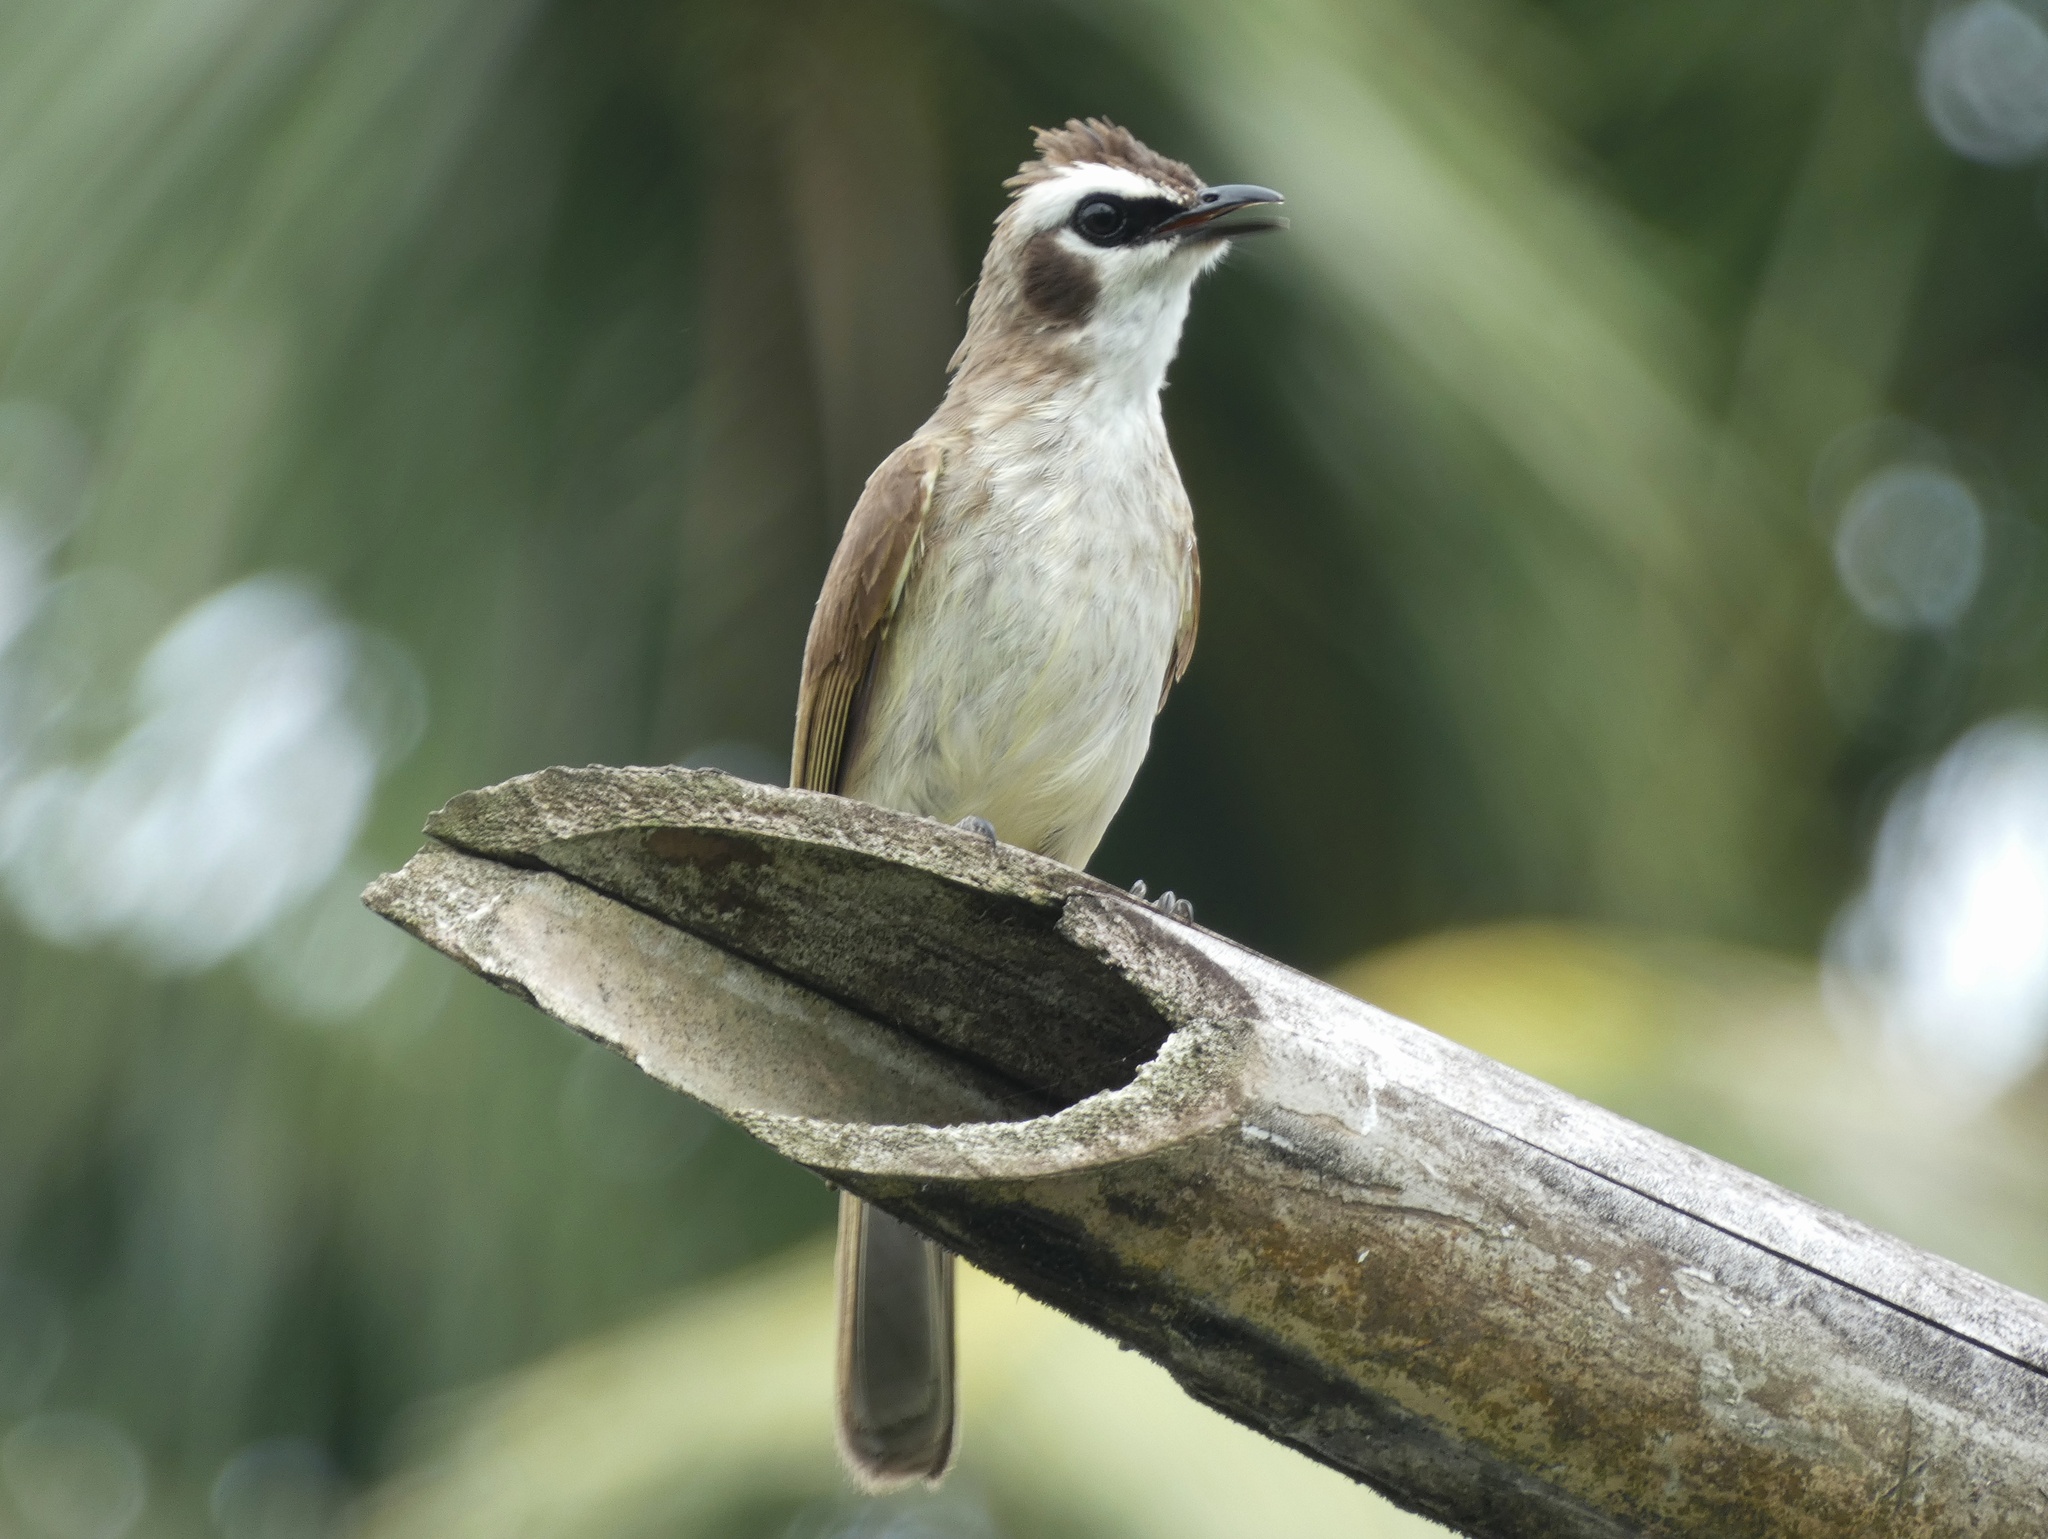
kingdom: Animalia
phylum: Chordata
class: Aves
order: Passeriformes
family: Pycnonotidae
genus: Pycnonotus
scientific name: Pycnonotus goiavier
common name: Yellow-vented bulbul
